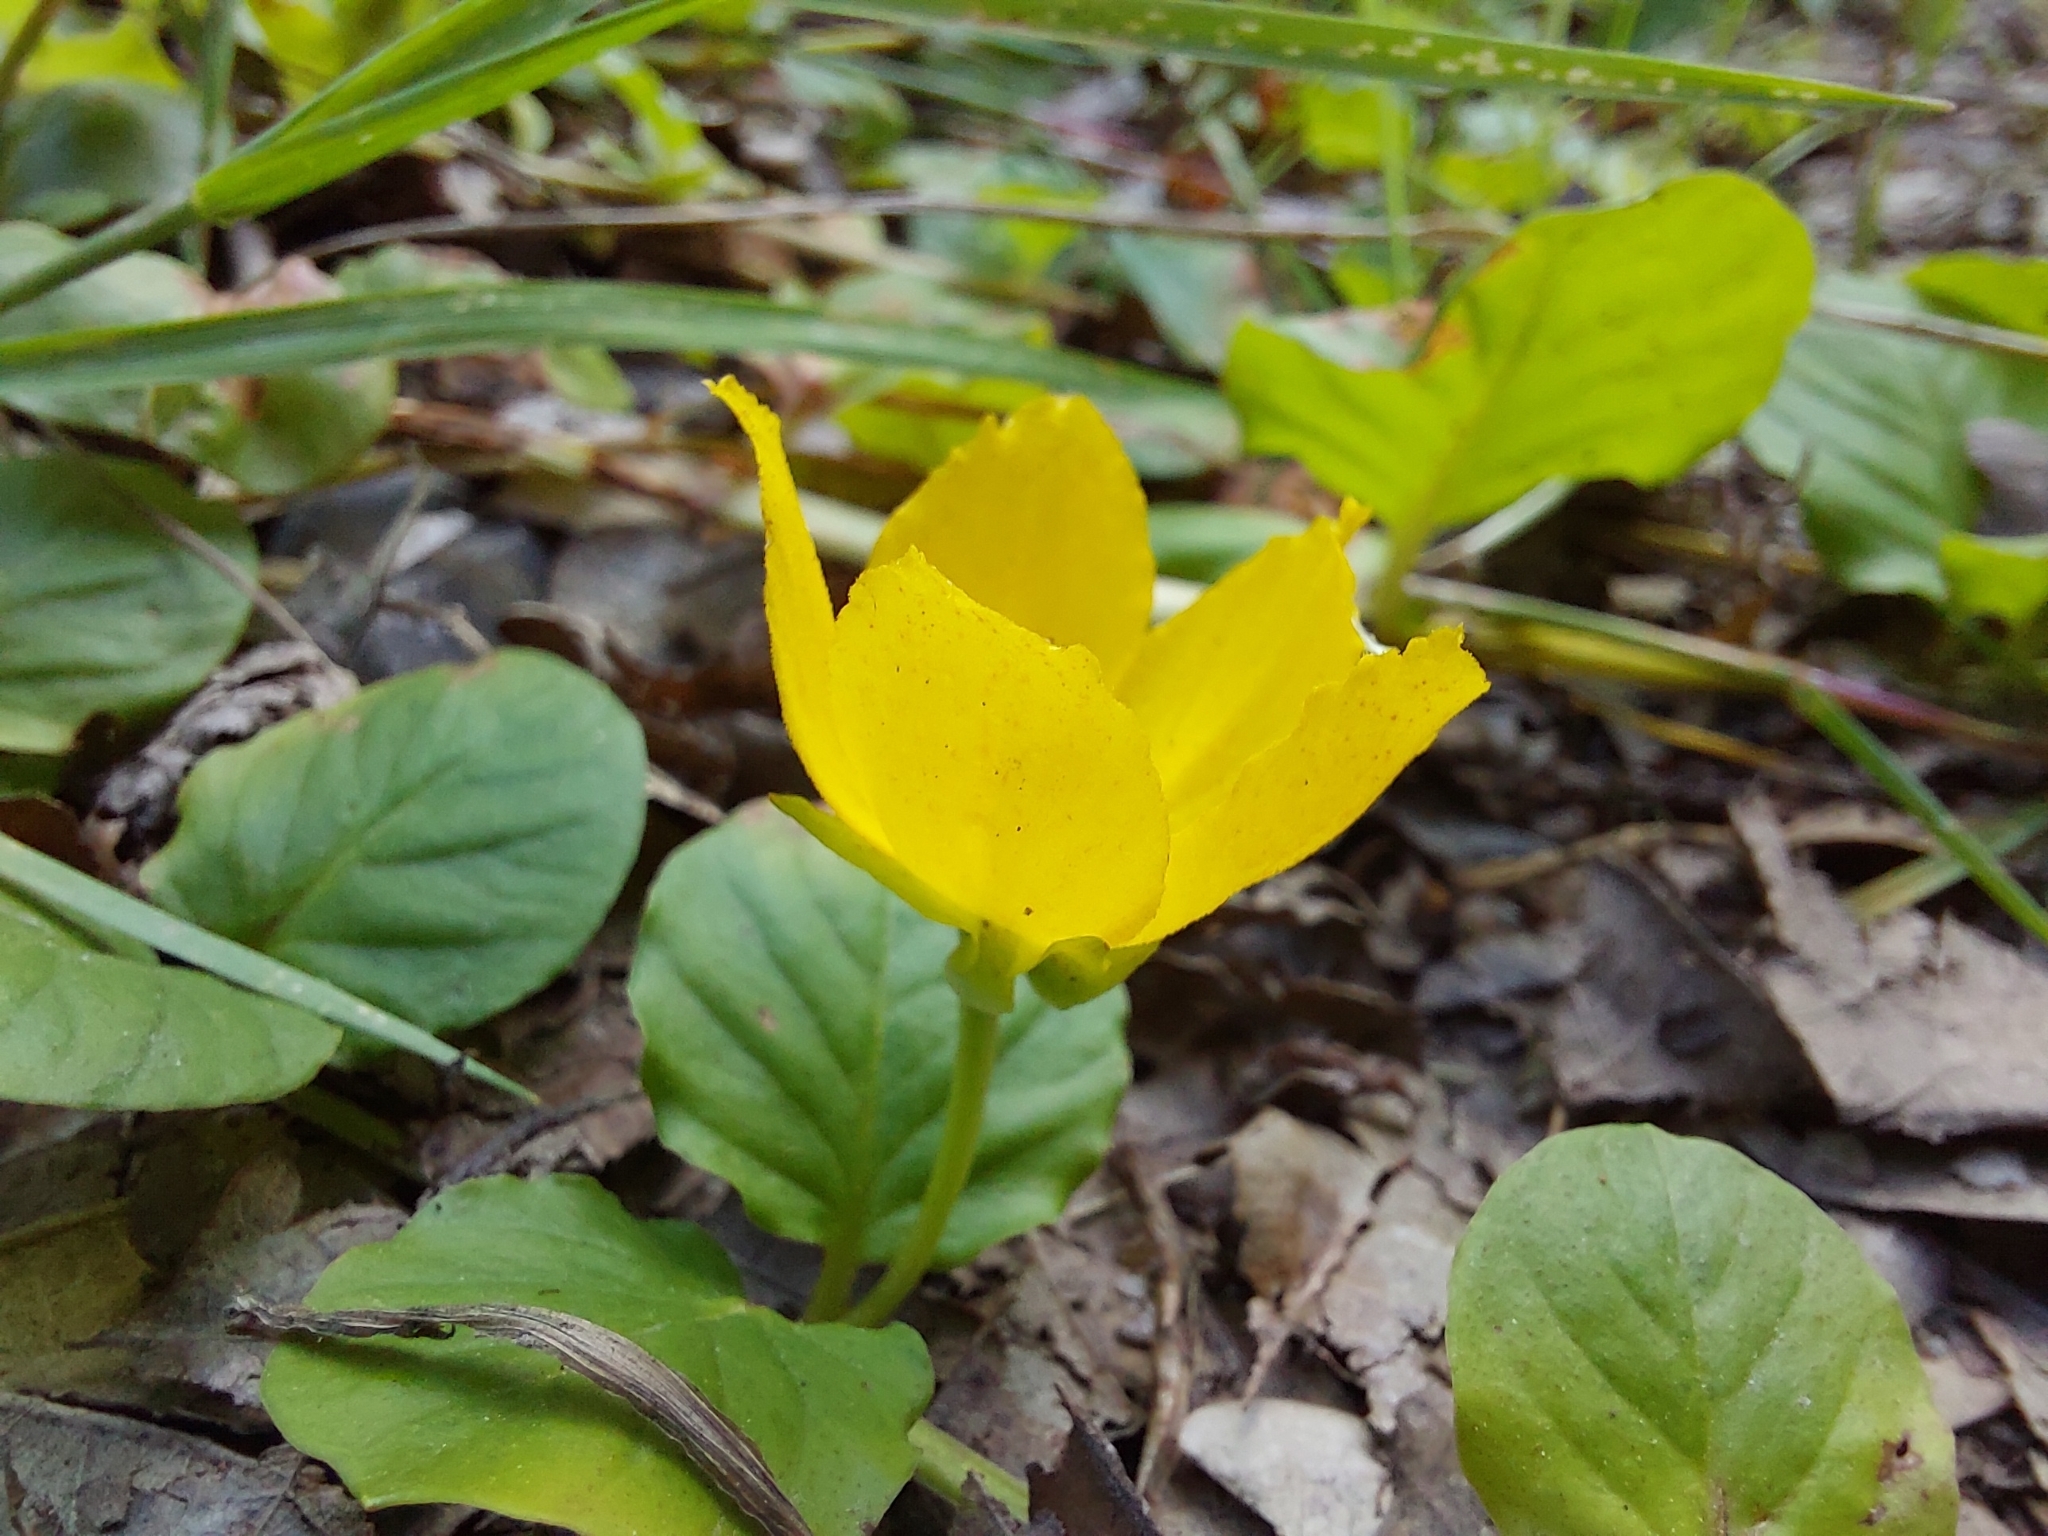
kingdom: Plantae
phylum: Tracheophyta
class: Magnoliopsida
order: Ericales
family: Primulaceae
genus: Lysimachia
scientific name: Lysimachia nummularia
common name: Moneywort
